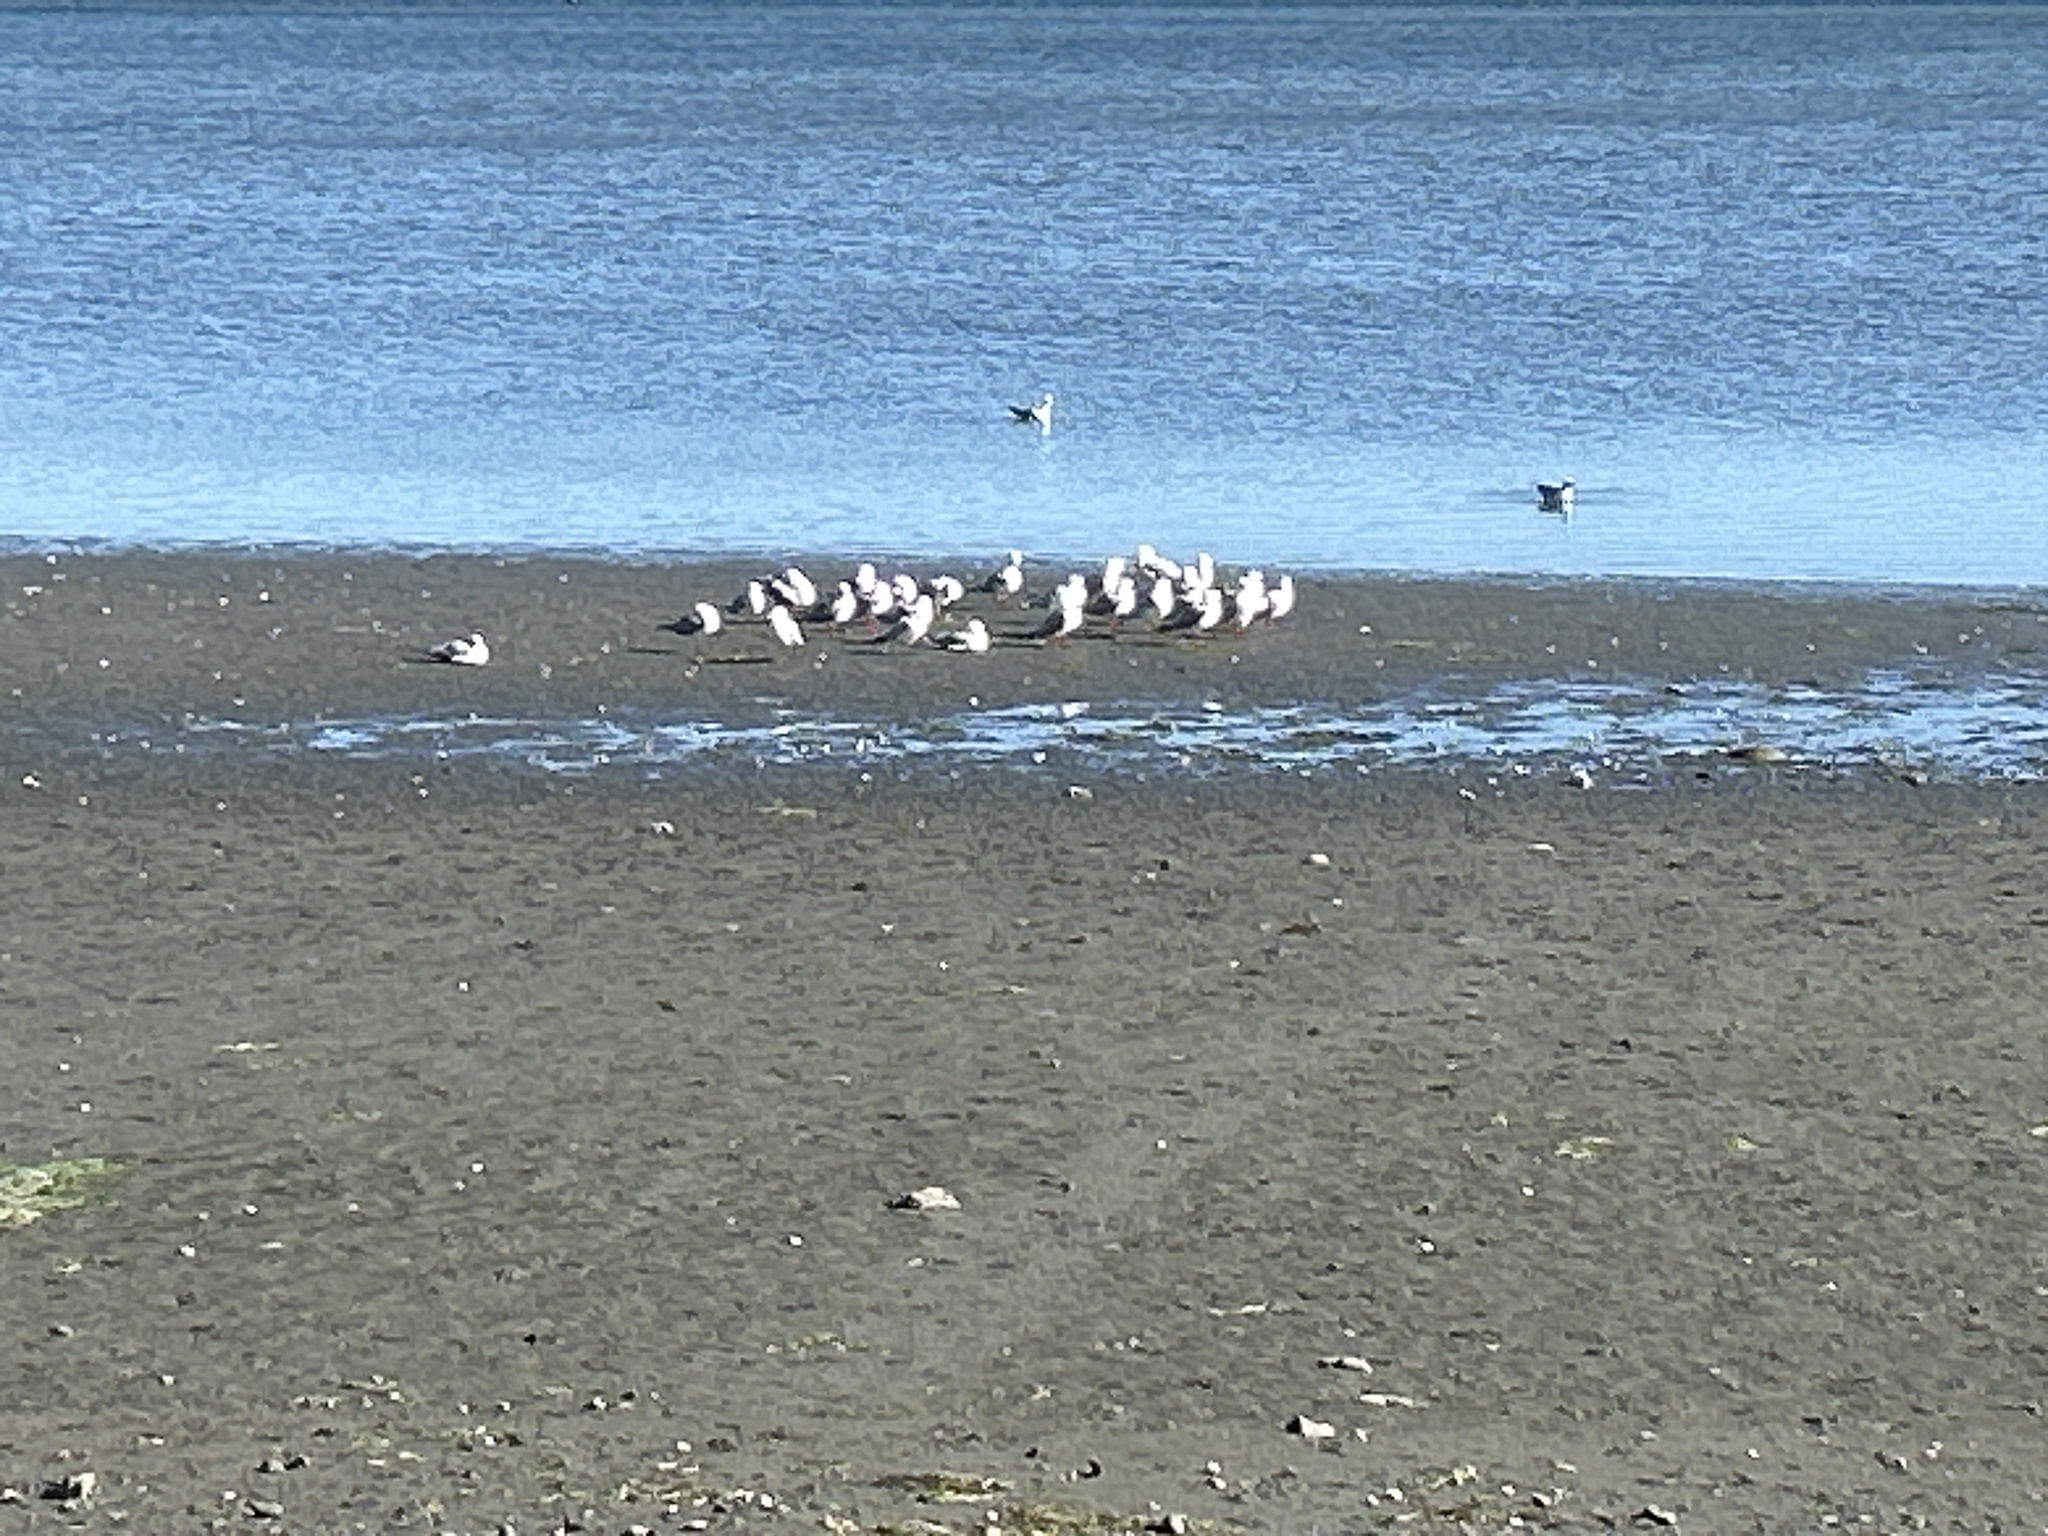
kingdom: Animalia
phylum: Chordata
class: Aves
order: Charadriiformes
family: Laridae
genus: Chroicocephalus
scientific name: Chroicocephalus novaehollandiae
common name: Silver gull
